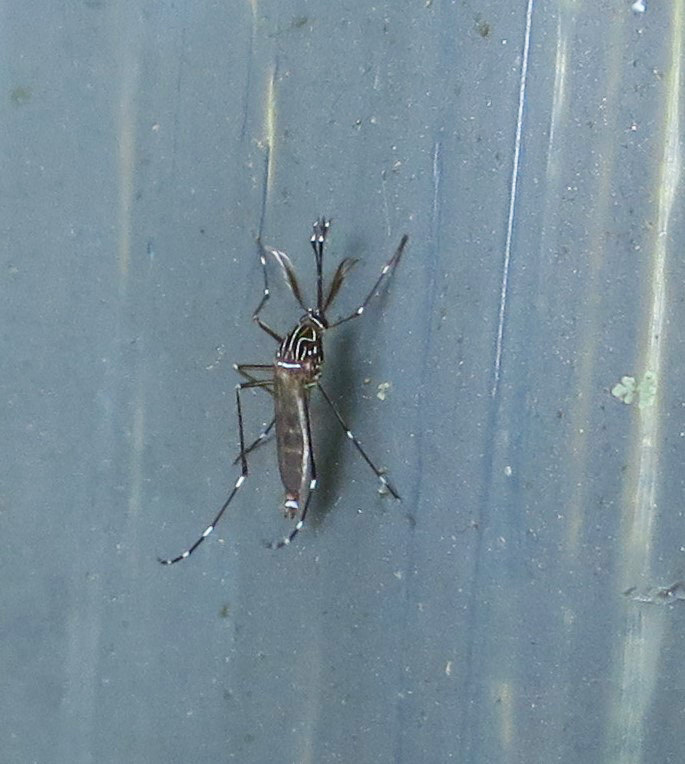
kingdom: Animalia
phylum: Arthropoda
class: Insecta
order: Diptera
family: Culicidae
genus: Aedes
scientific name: Aedes notoscriptus
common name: Australian backyard mosquito
